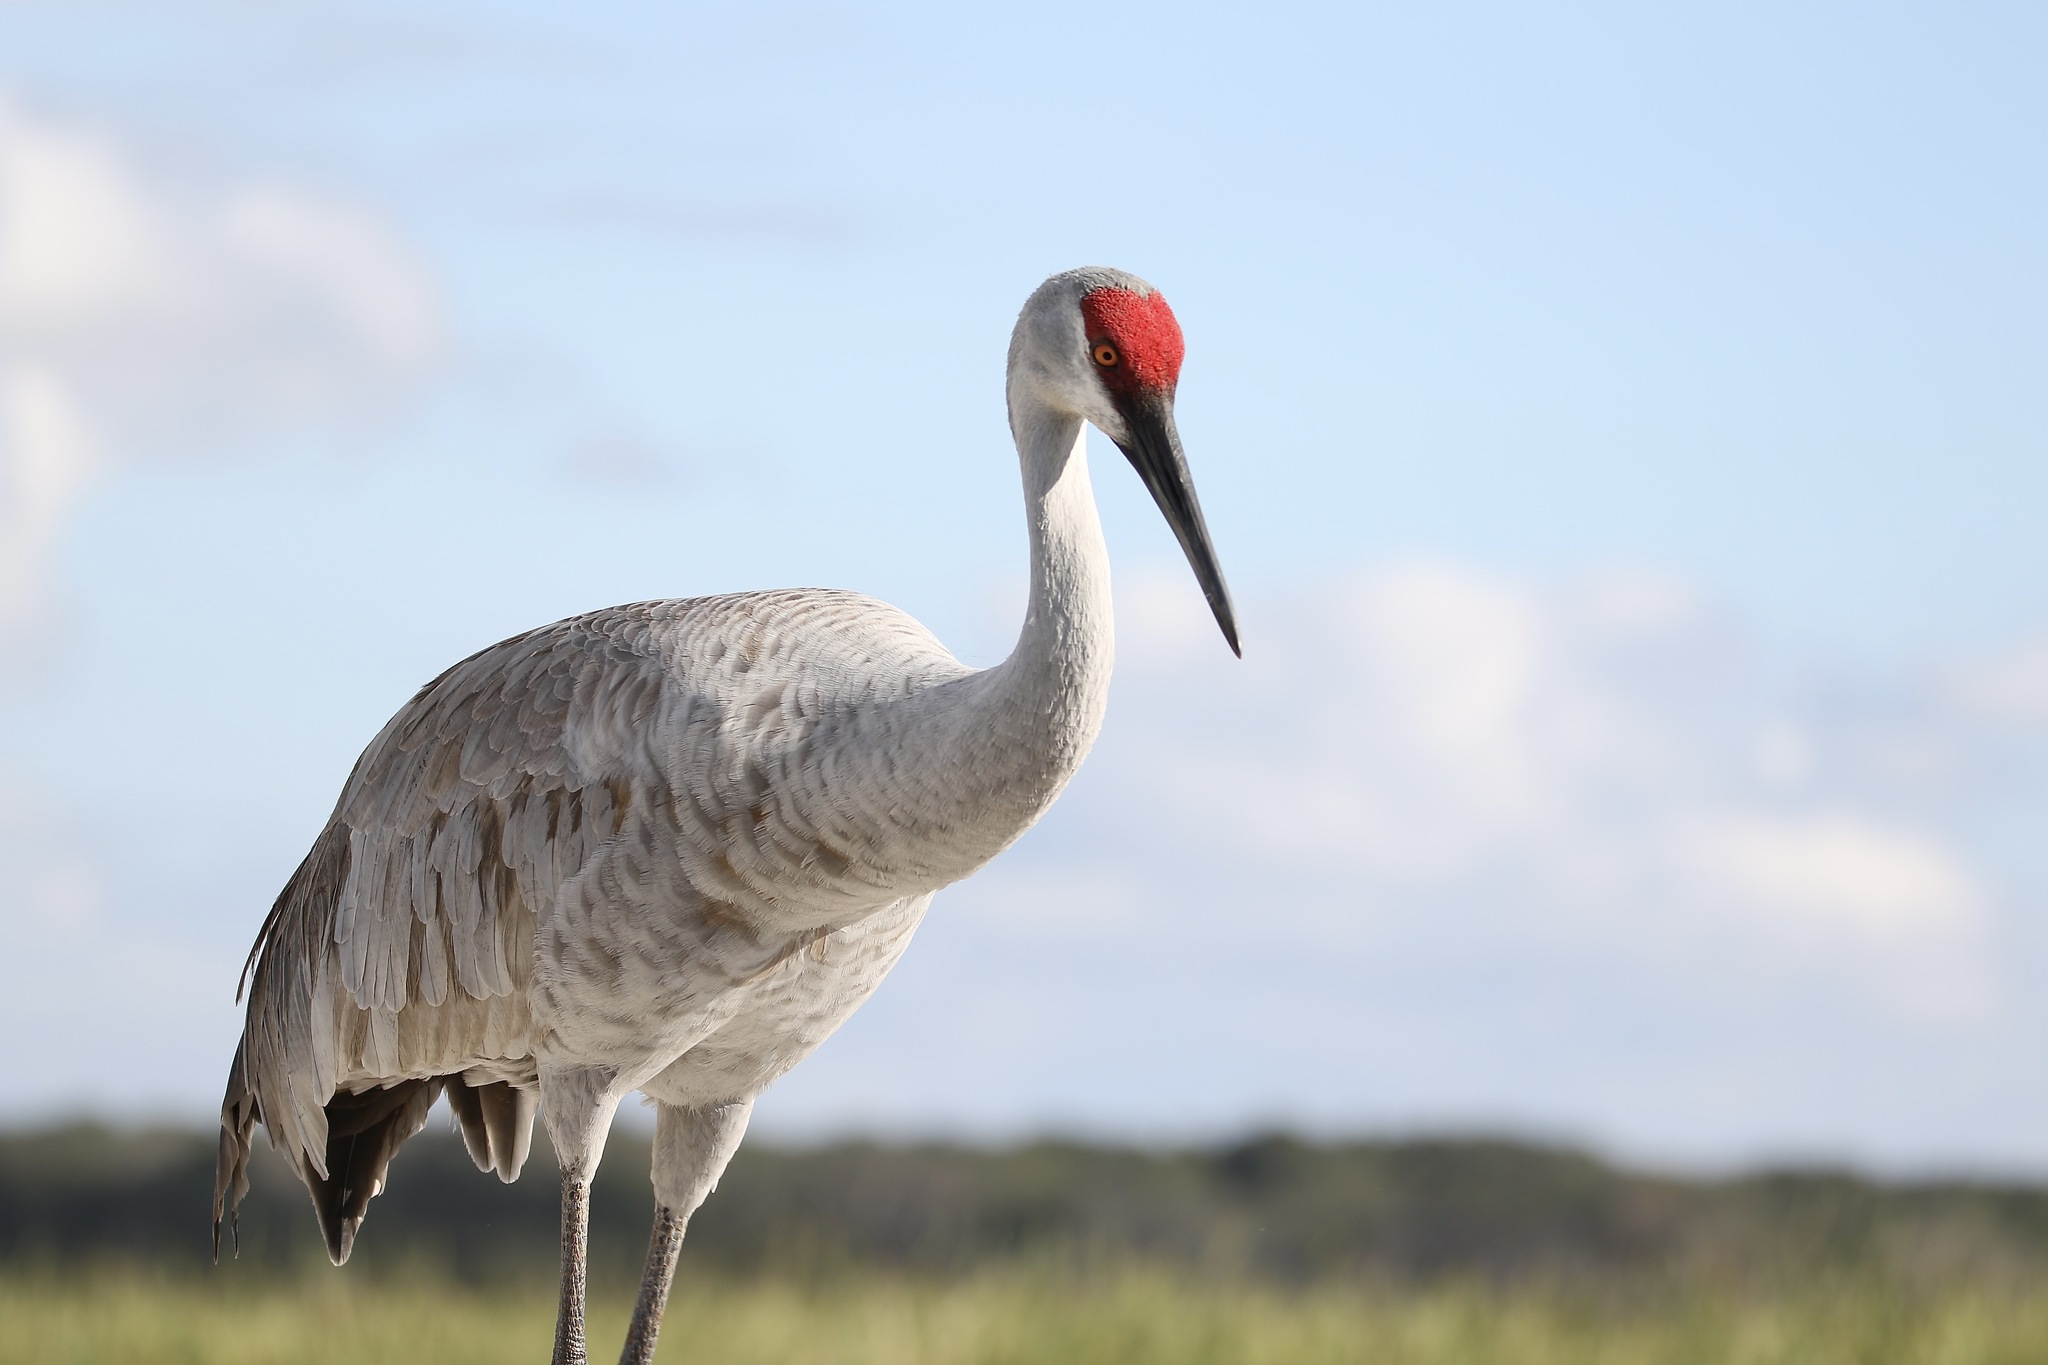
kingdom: Animalia
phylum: Chordata
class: Aves
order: Gruiformes
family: Gruidae
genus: Grus
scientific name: Grus canadensis
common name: Sandhill crane
